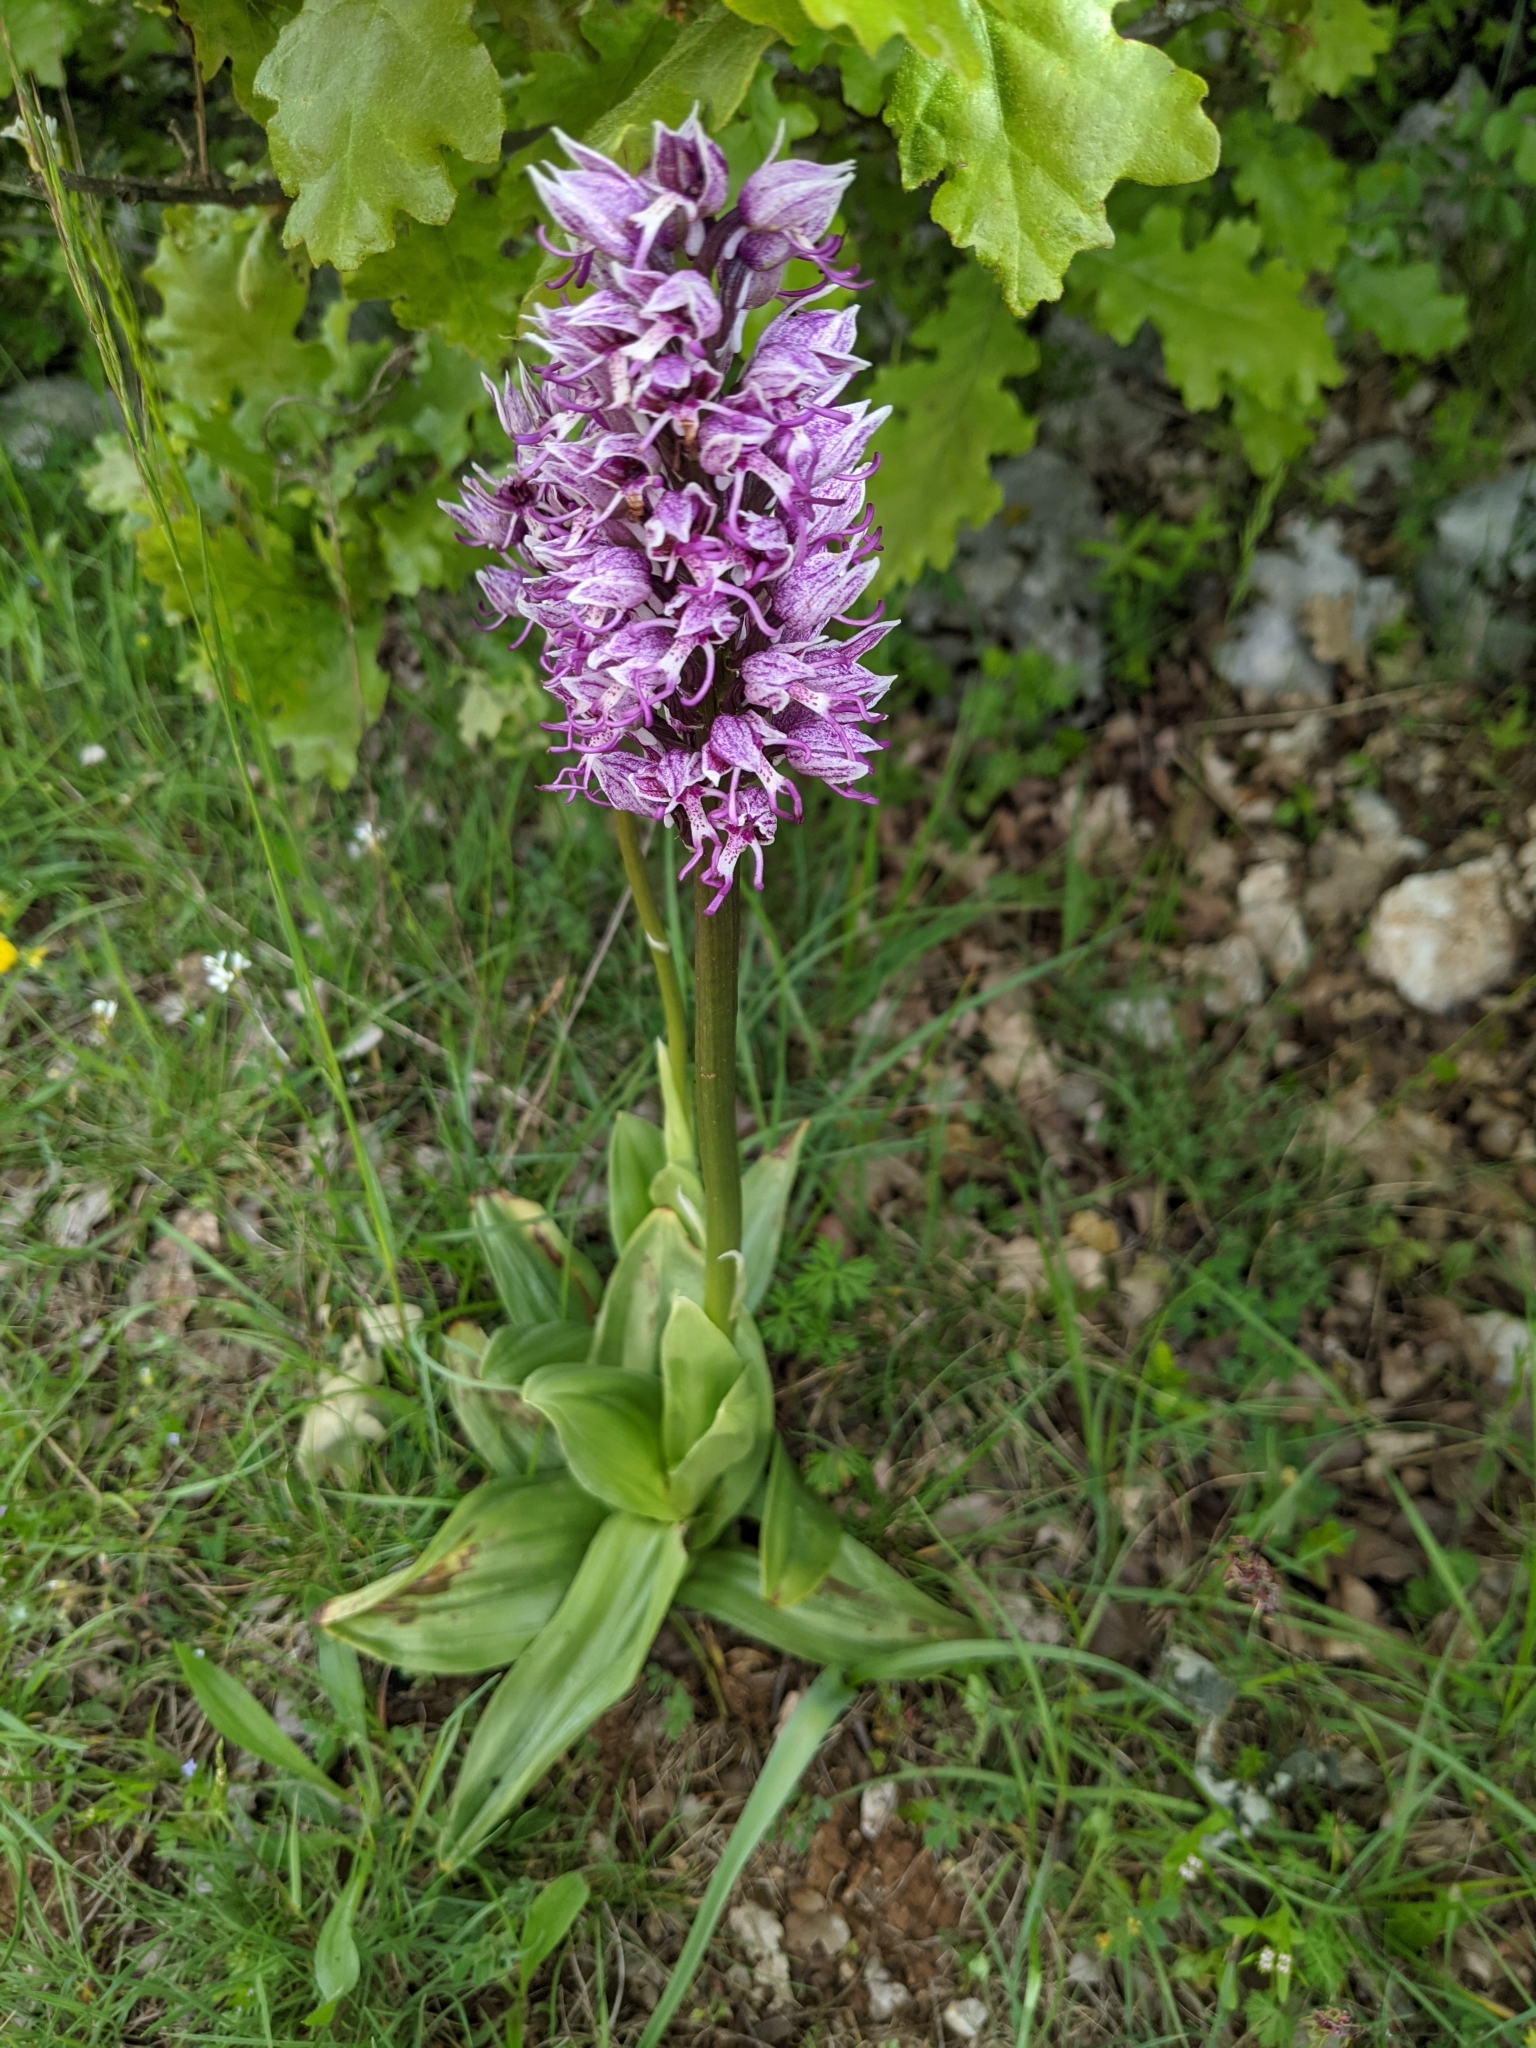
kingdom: Plantae
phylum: Tracheophyta
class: Liliopsida
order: Asparagales
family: Orchidaceae
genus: Orchis
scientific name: Orchis simia
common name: Monkey orchid
